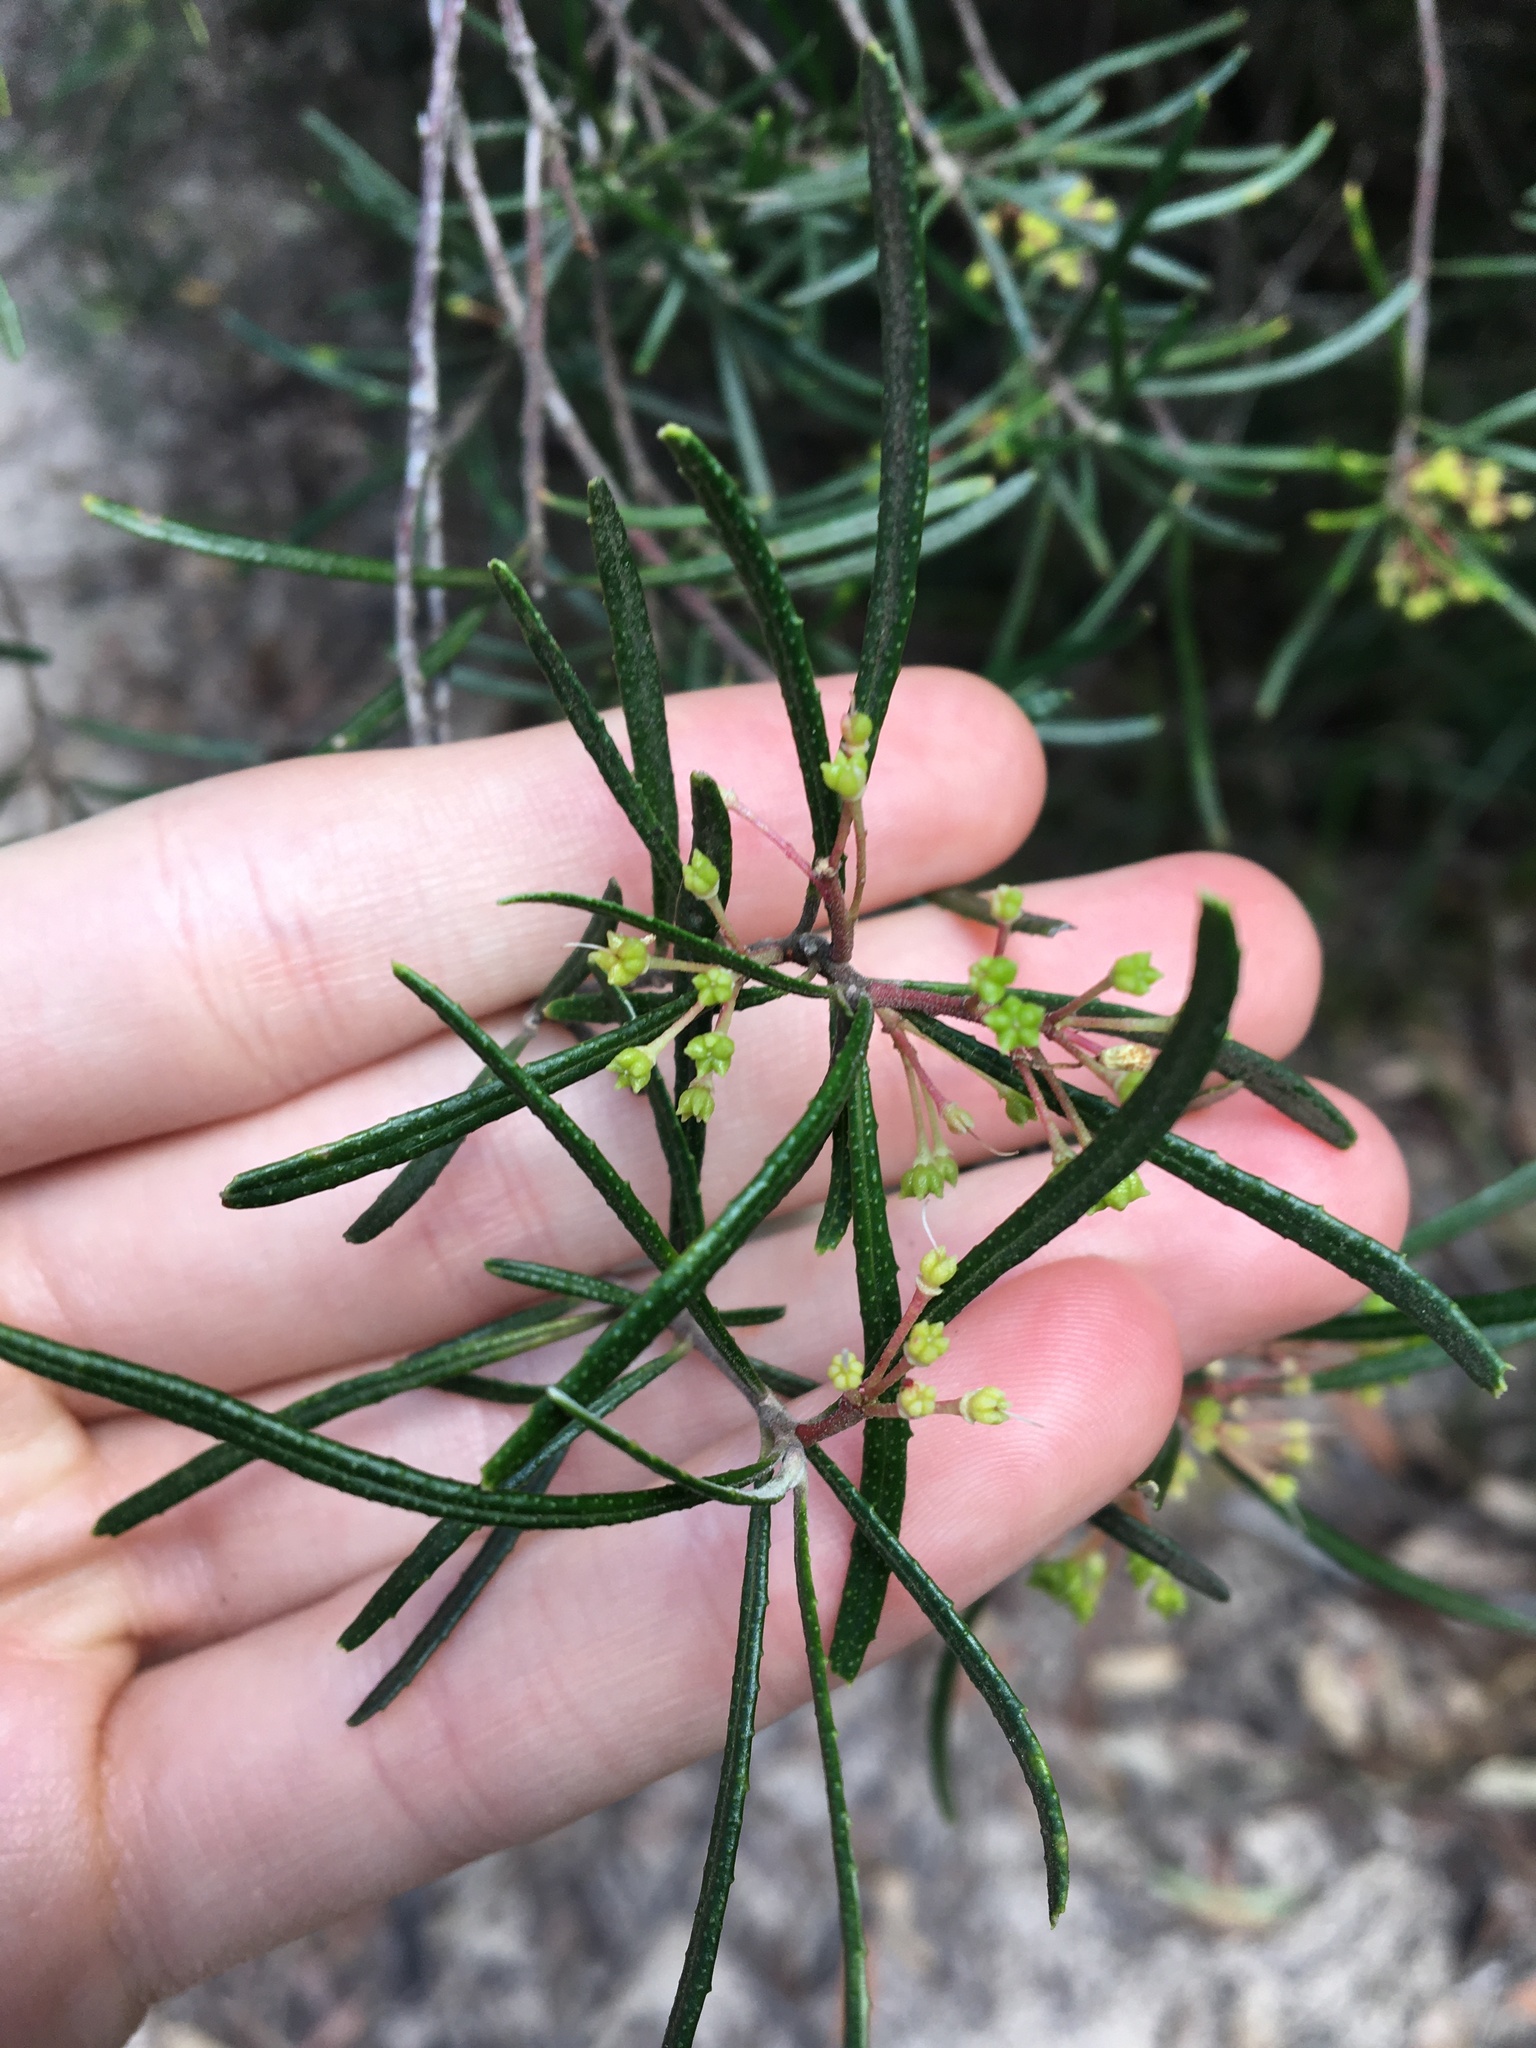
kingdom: Plantae
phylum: Tracheophyta
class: Magnoliopsida
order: Sapindales
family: Rutaceae
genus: Leionema
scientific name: Leionema dentatum
